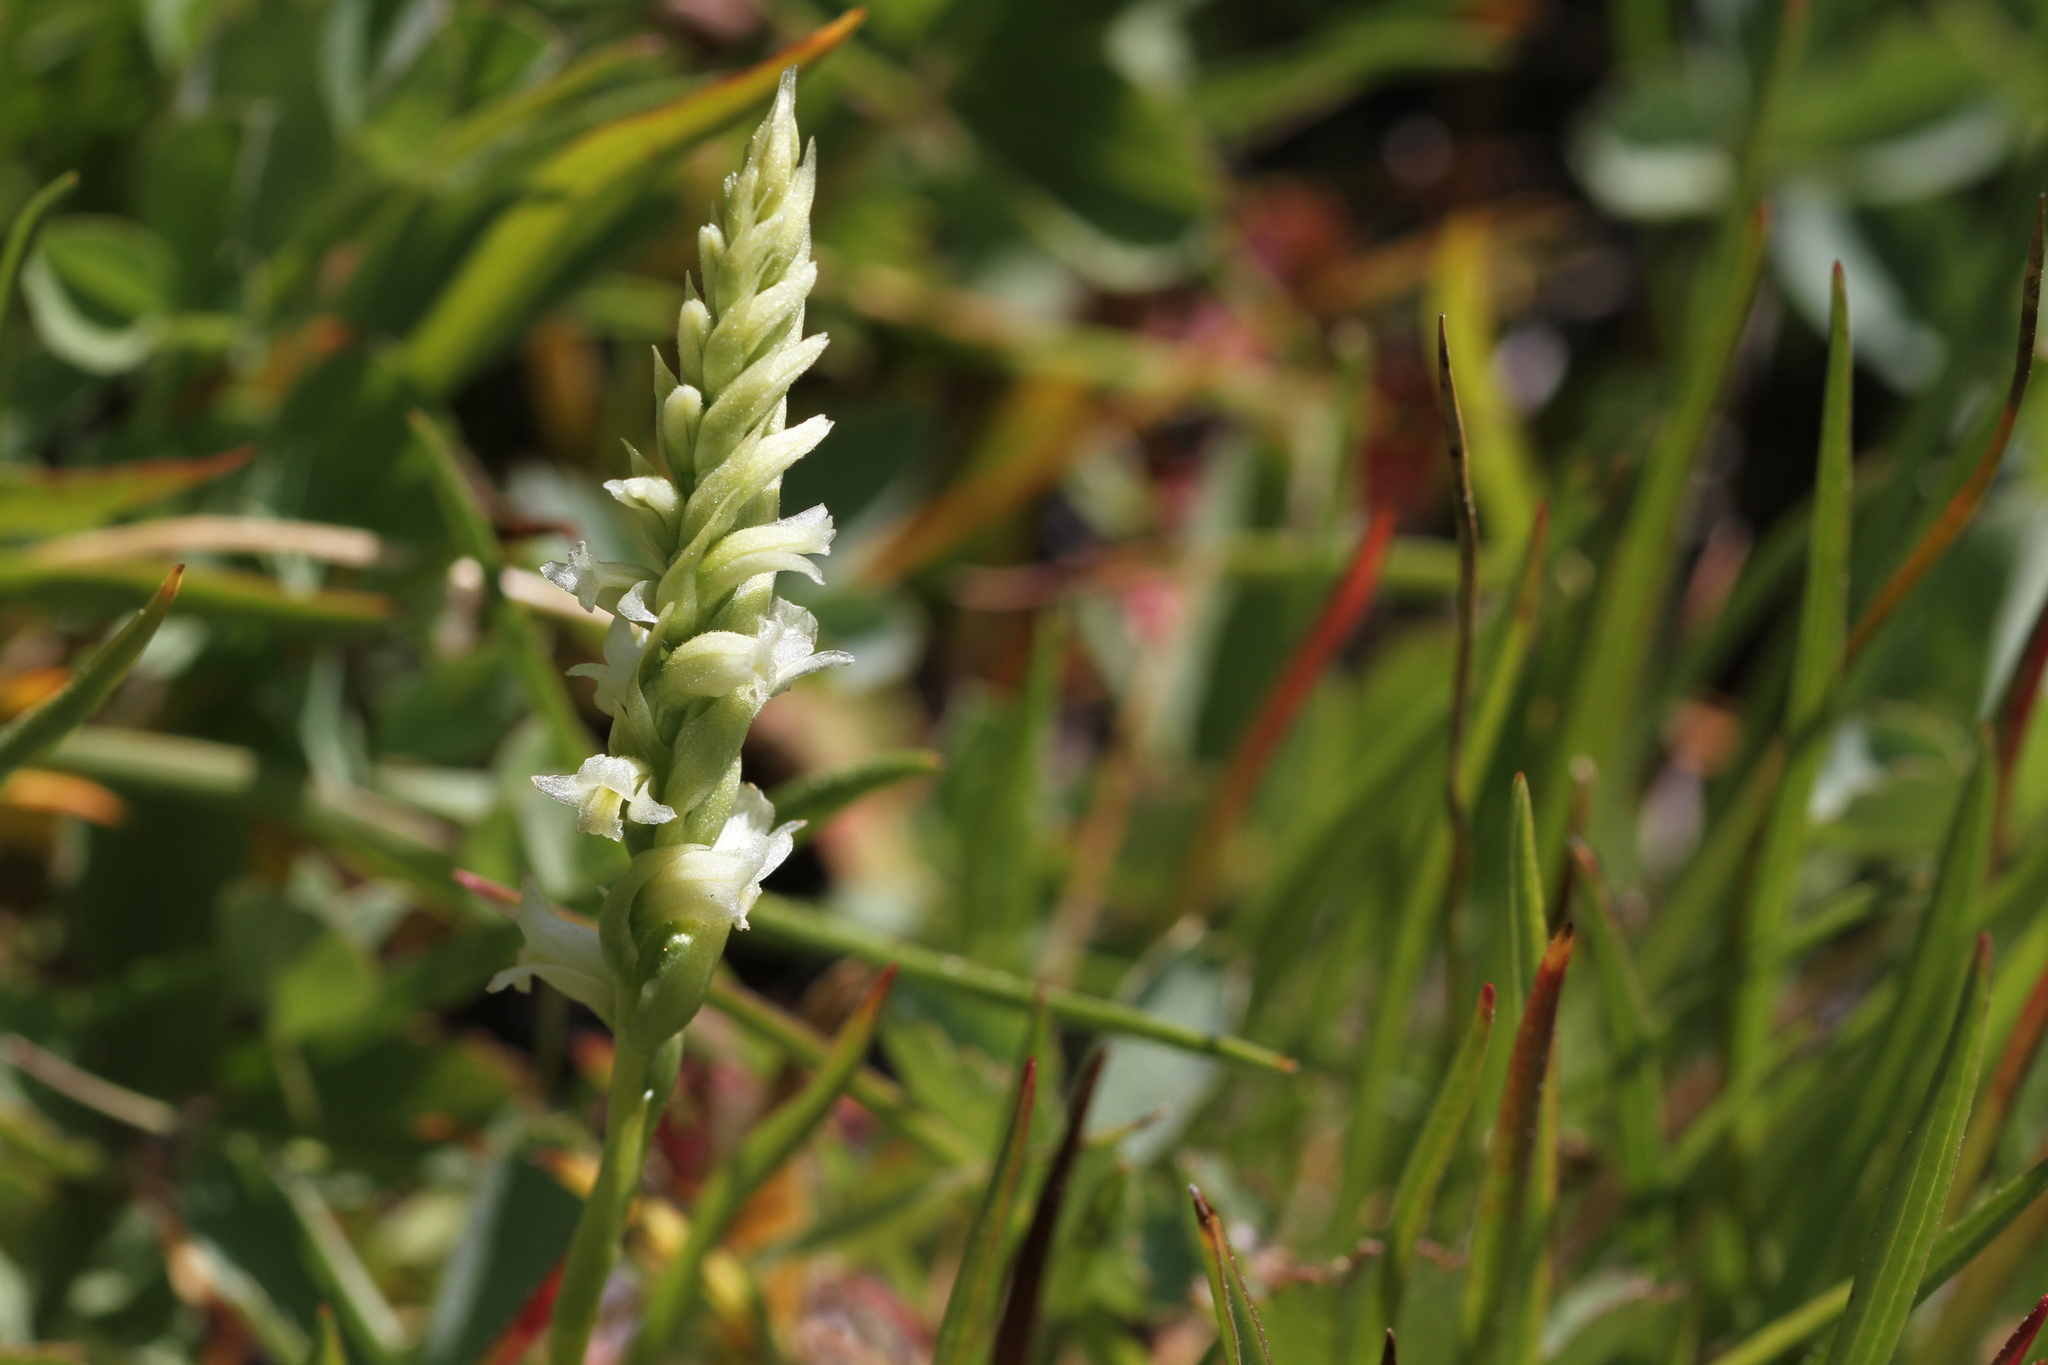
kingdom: Plantae
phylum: Tracheophyta
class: Liliopsida
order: Asparagales
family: Orchidaceae
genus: Spiranthes
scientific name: Spiranthes stellata
